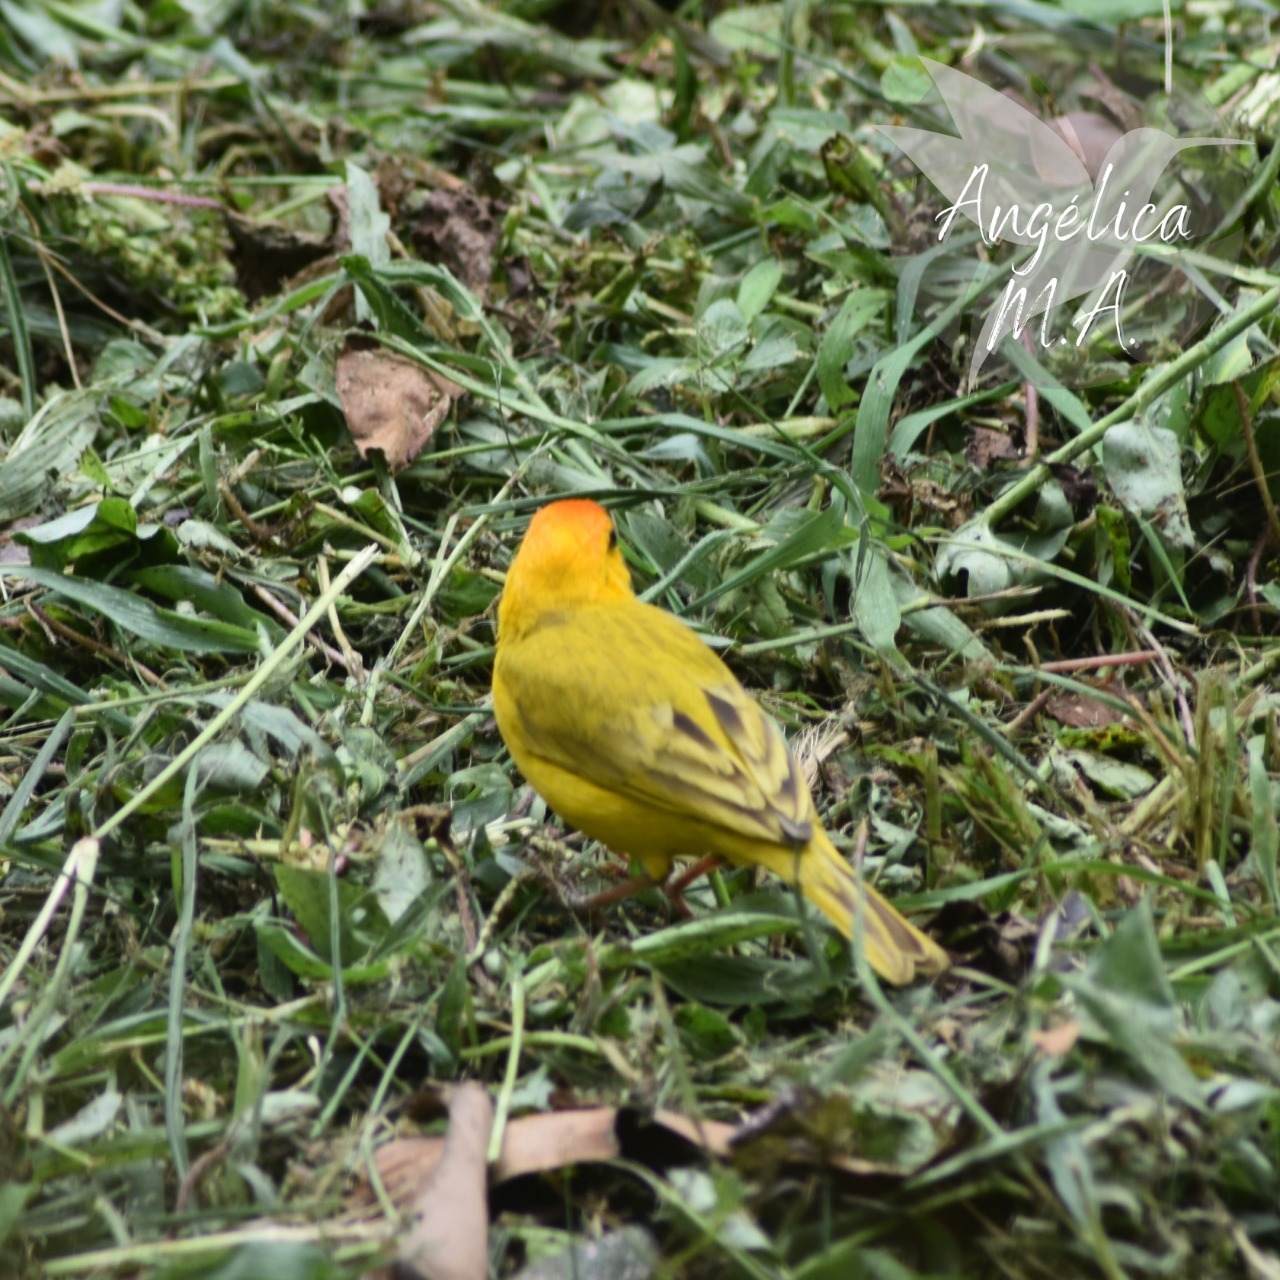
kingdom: Animalia
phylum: Chordata
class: Aves
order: Passeriformes
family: Thraupidae
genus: Sicalis
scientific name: Sicalis flaveola
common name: Saffron finch
